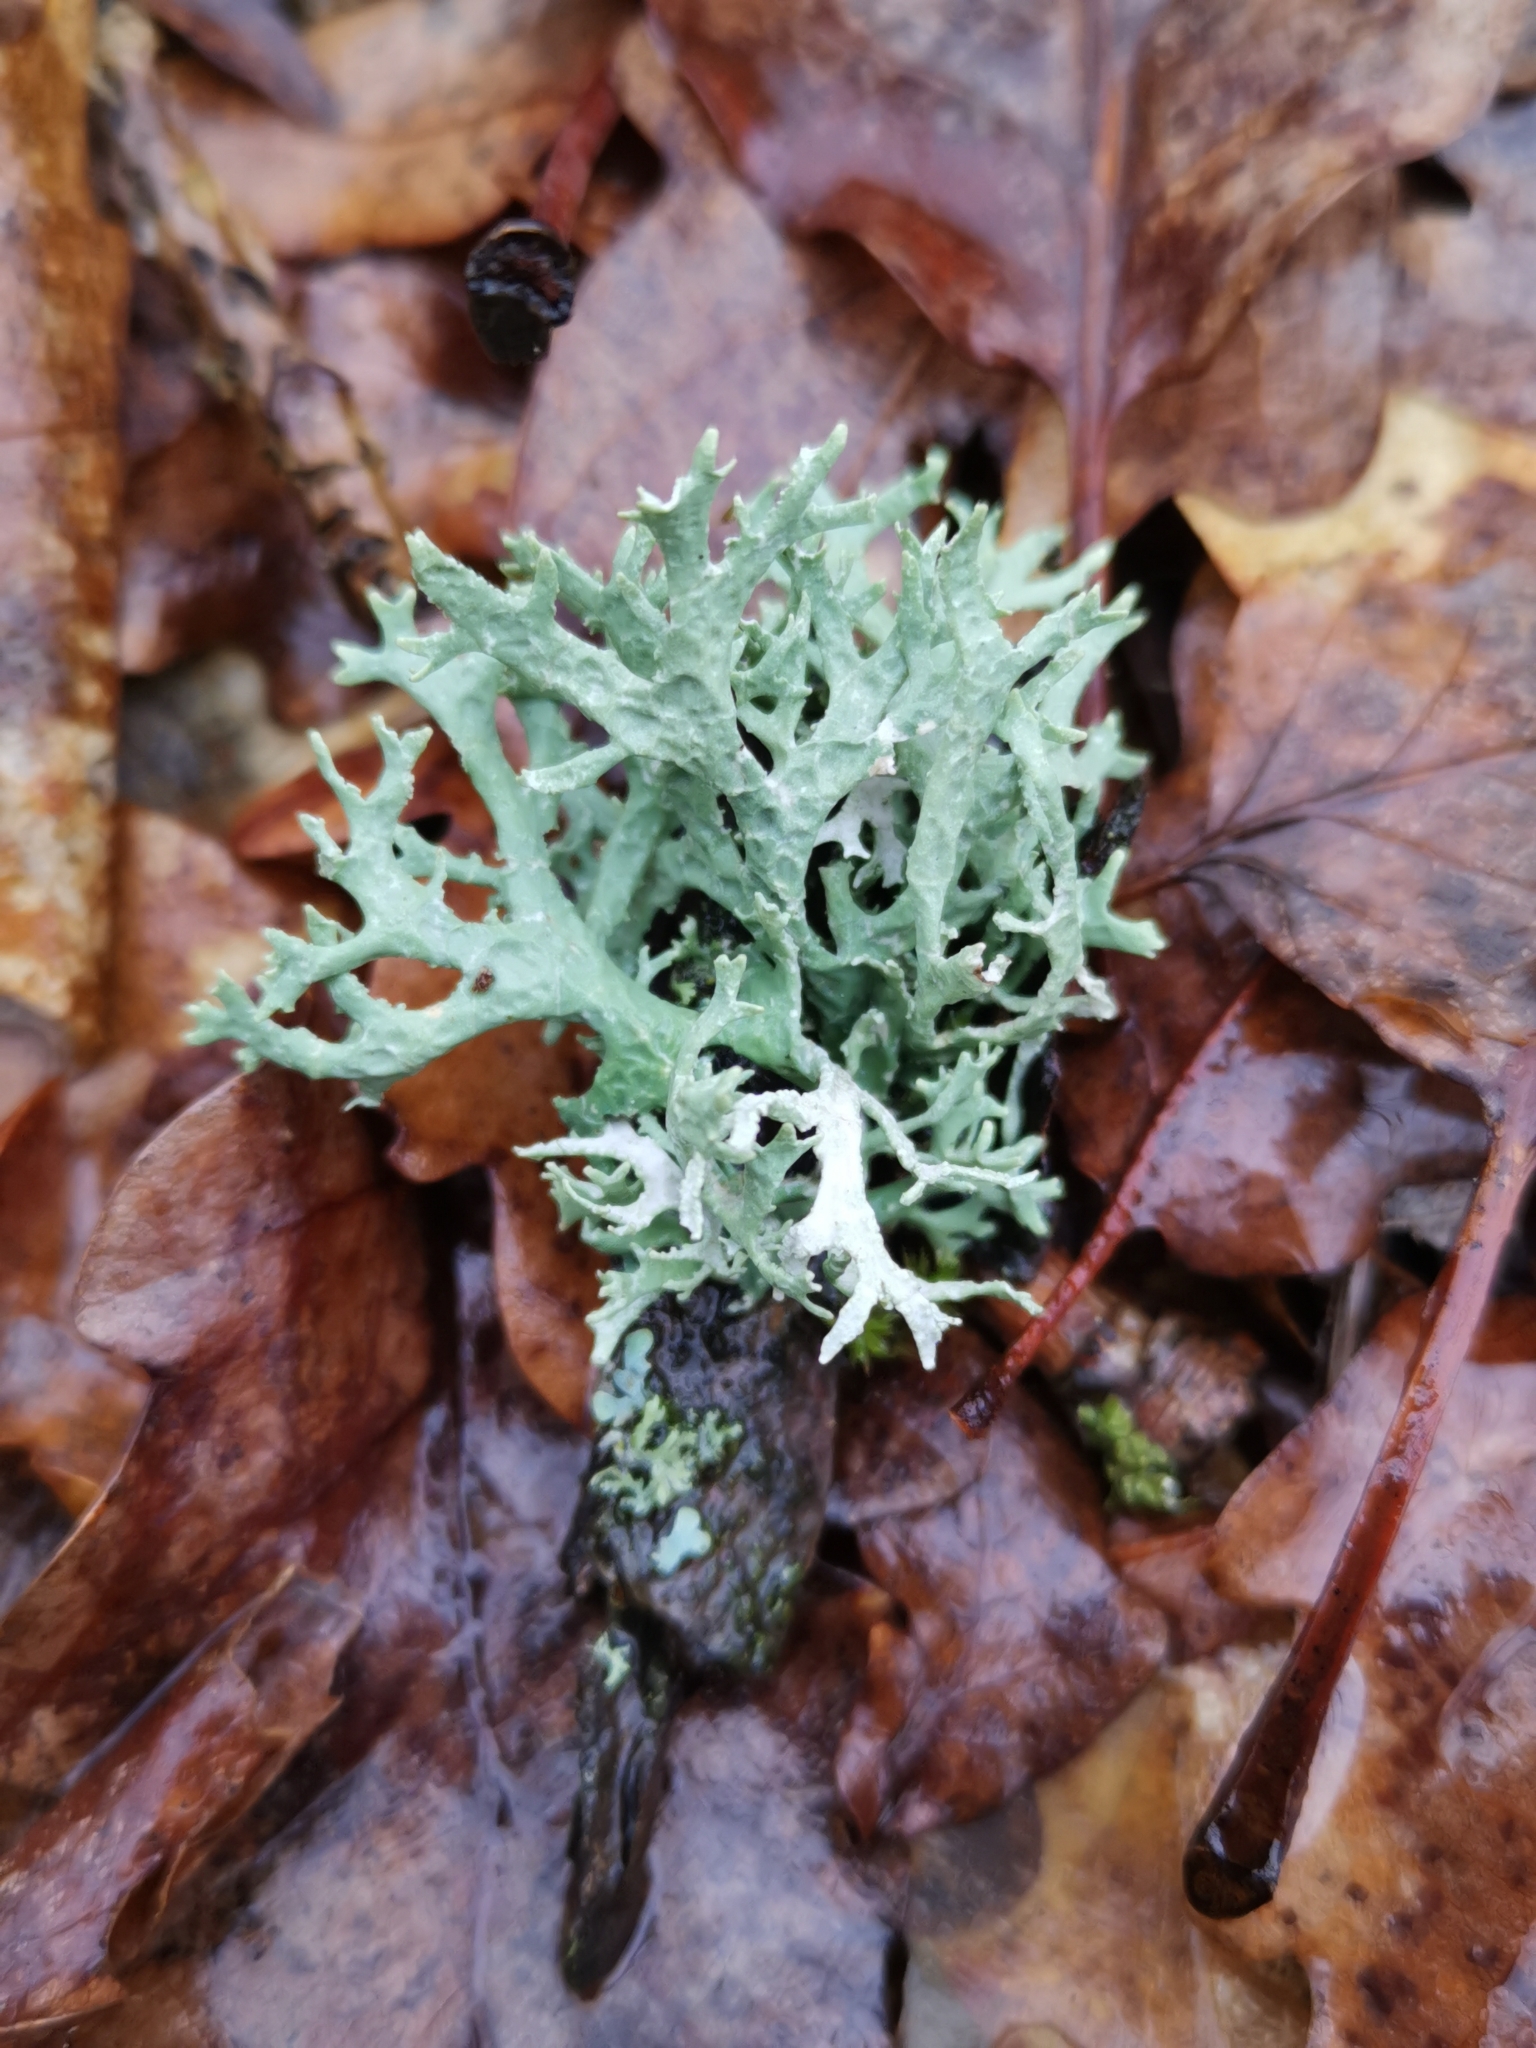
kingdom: Fungi
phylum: Ascomycota
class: Lecanoromycetes
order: Lecanorales
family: Parmeliaceae
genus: Evernia
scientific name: Evernia prunastri
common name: Oak moss
